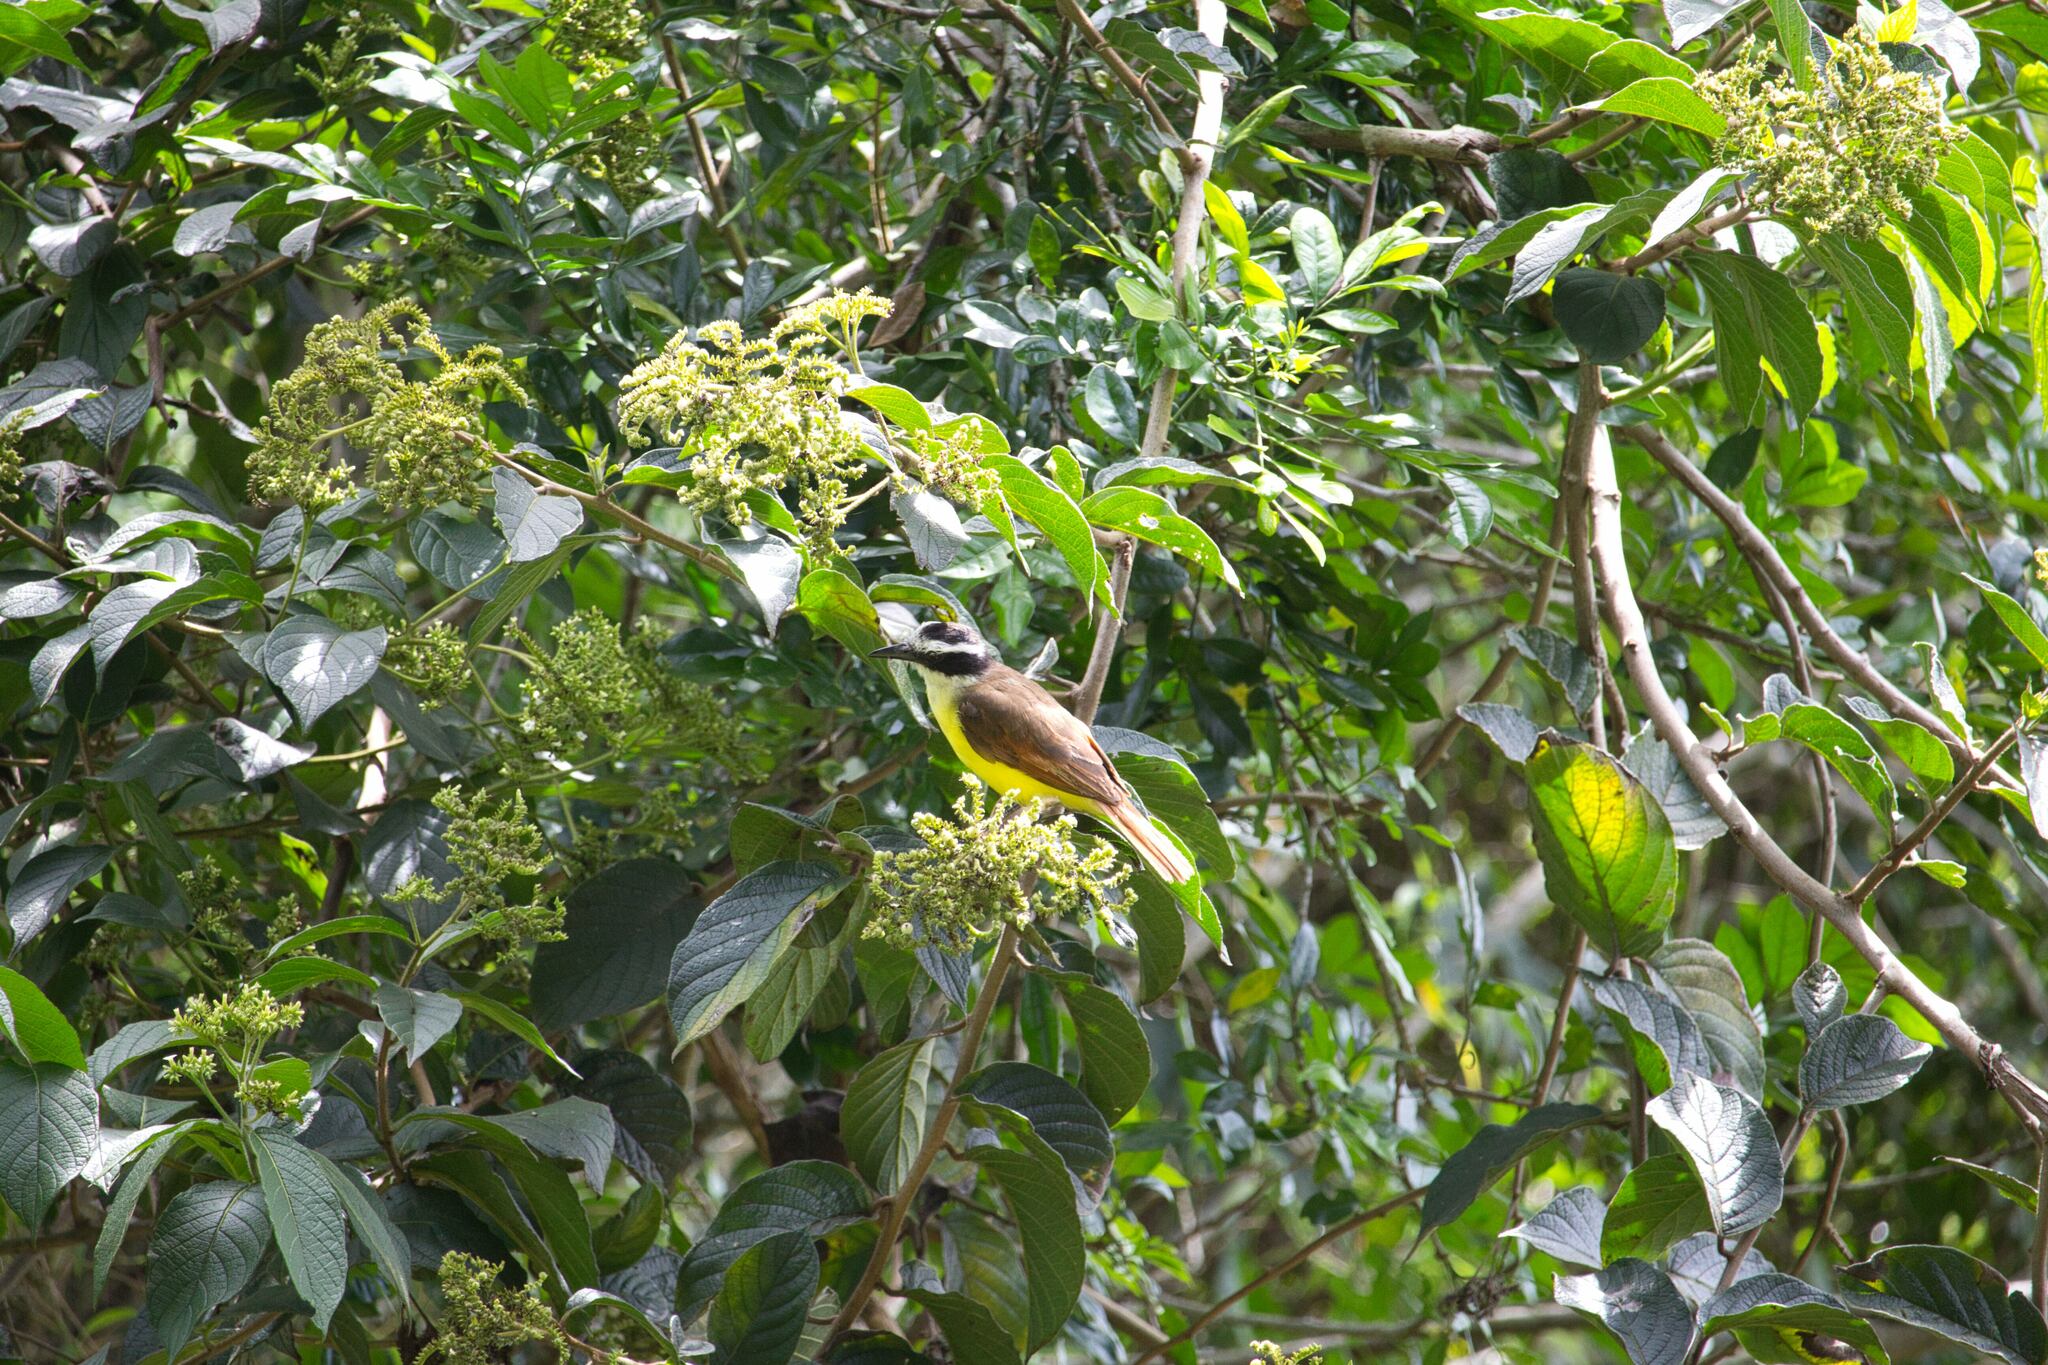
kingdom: Animalia
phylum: Chordata
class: Aves
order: Passeriformes
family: Tyrannidae
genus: Myiozetetes
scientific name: Myiozetetes similis
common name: Social flycatcher
